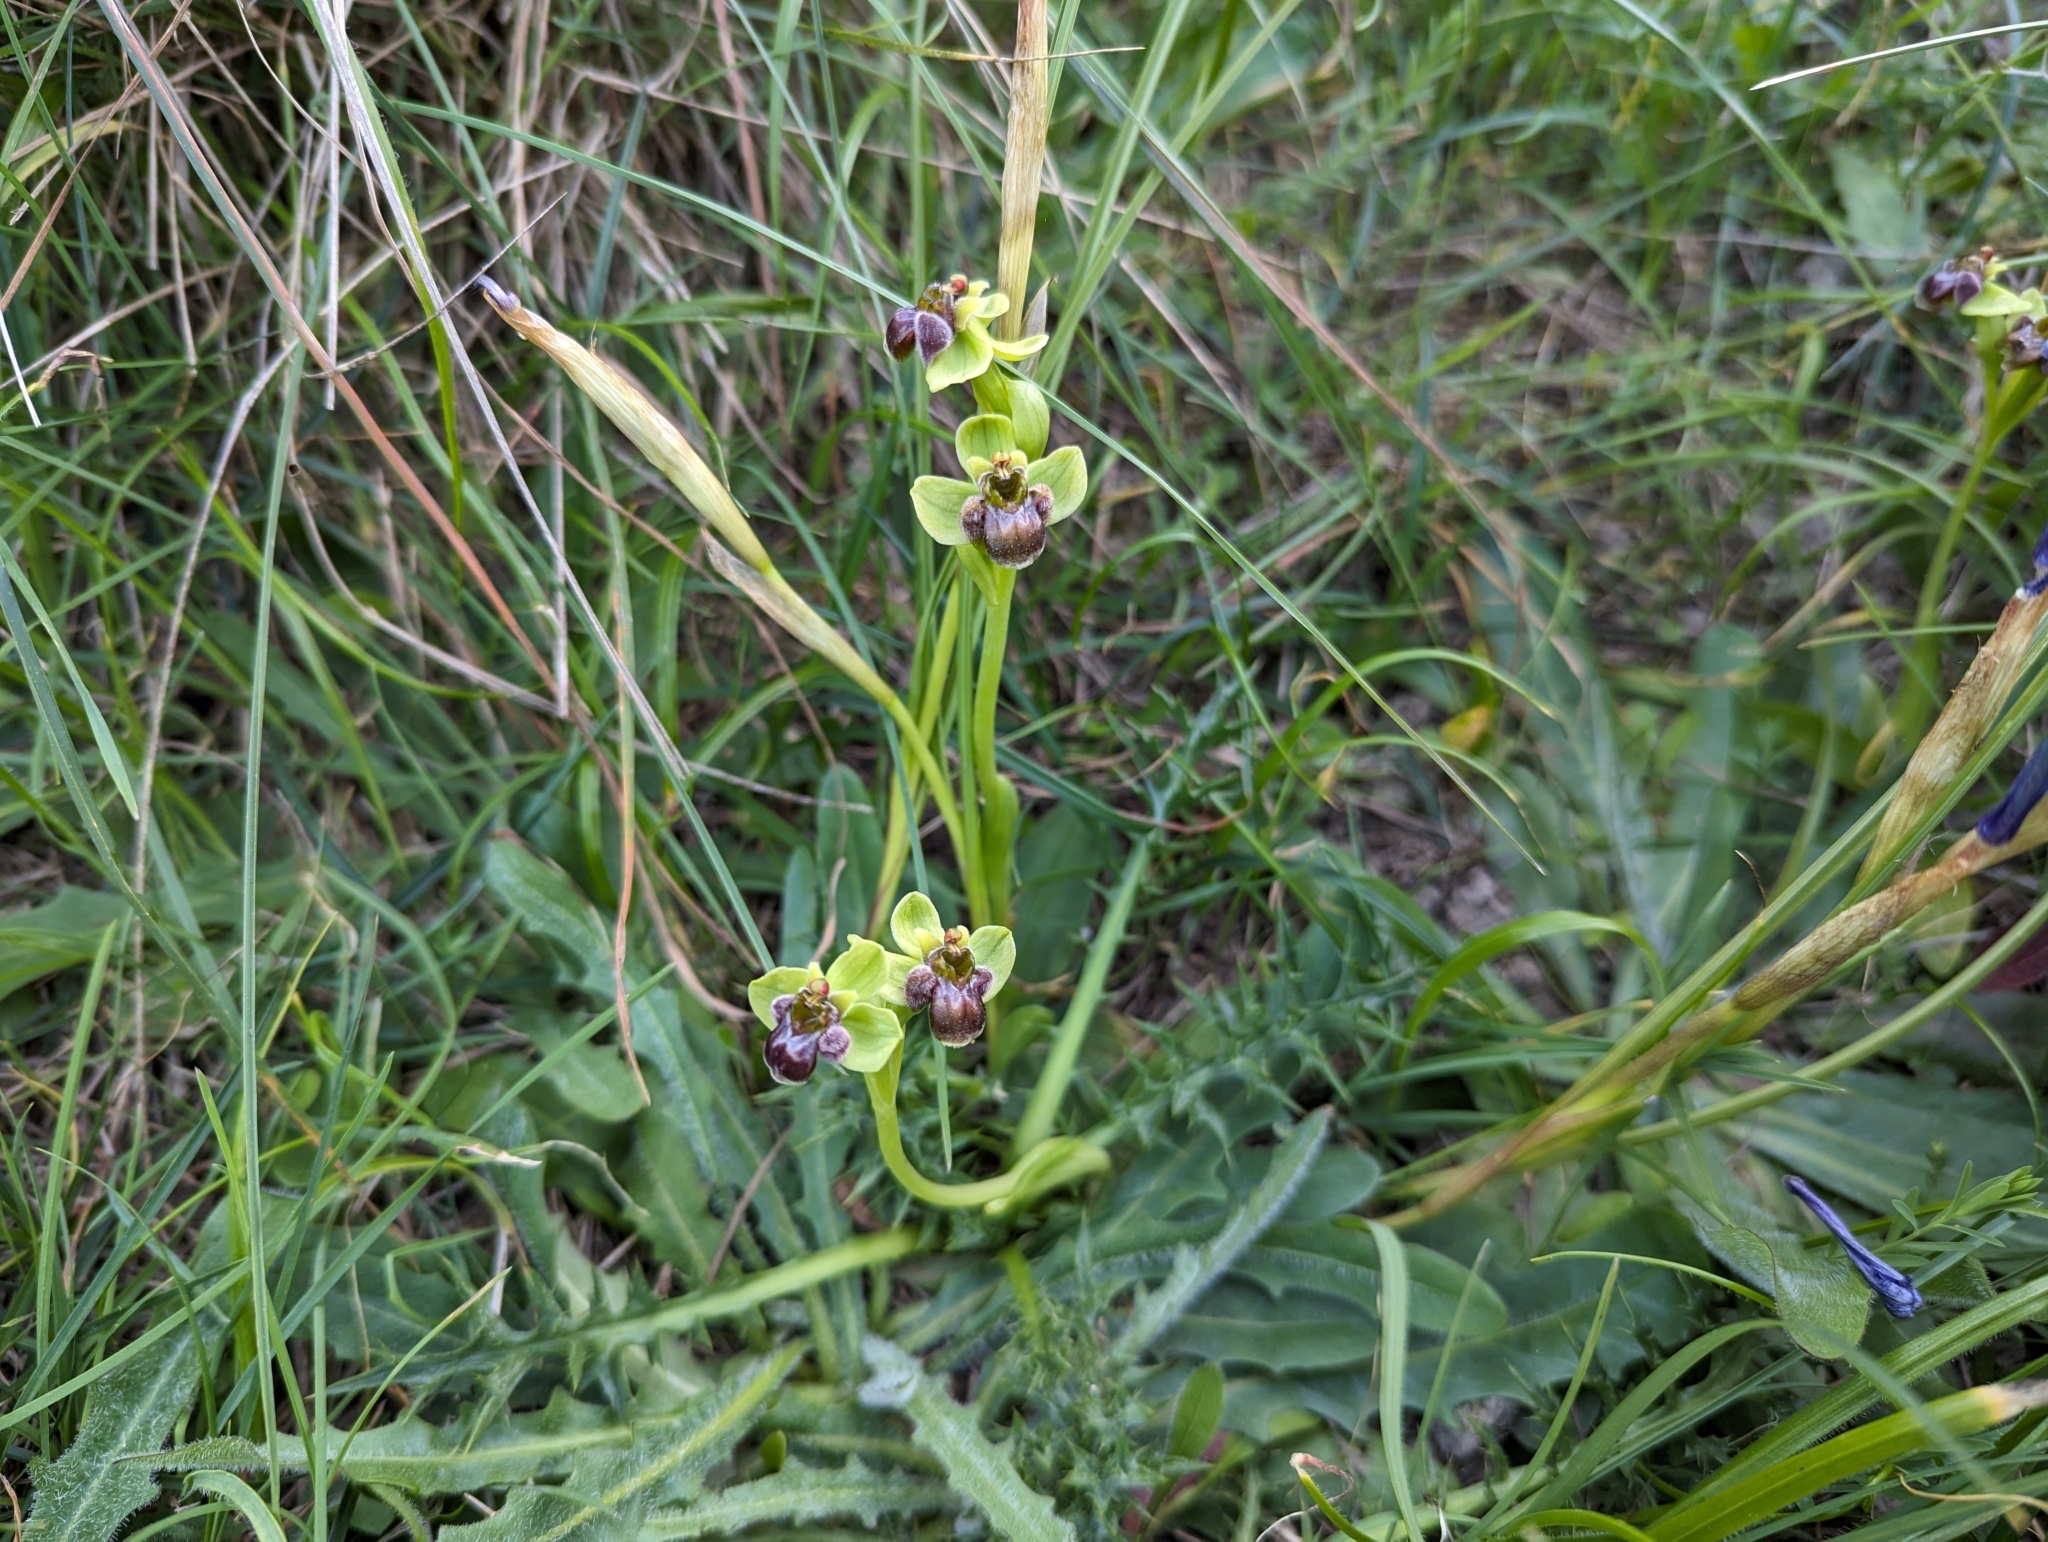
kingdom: Plantae
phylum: Tracheophyta
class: Liliopsida
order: Asparagales
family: Orchidaceae
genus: Ophrys
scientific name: Ophrys bombyliflora
